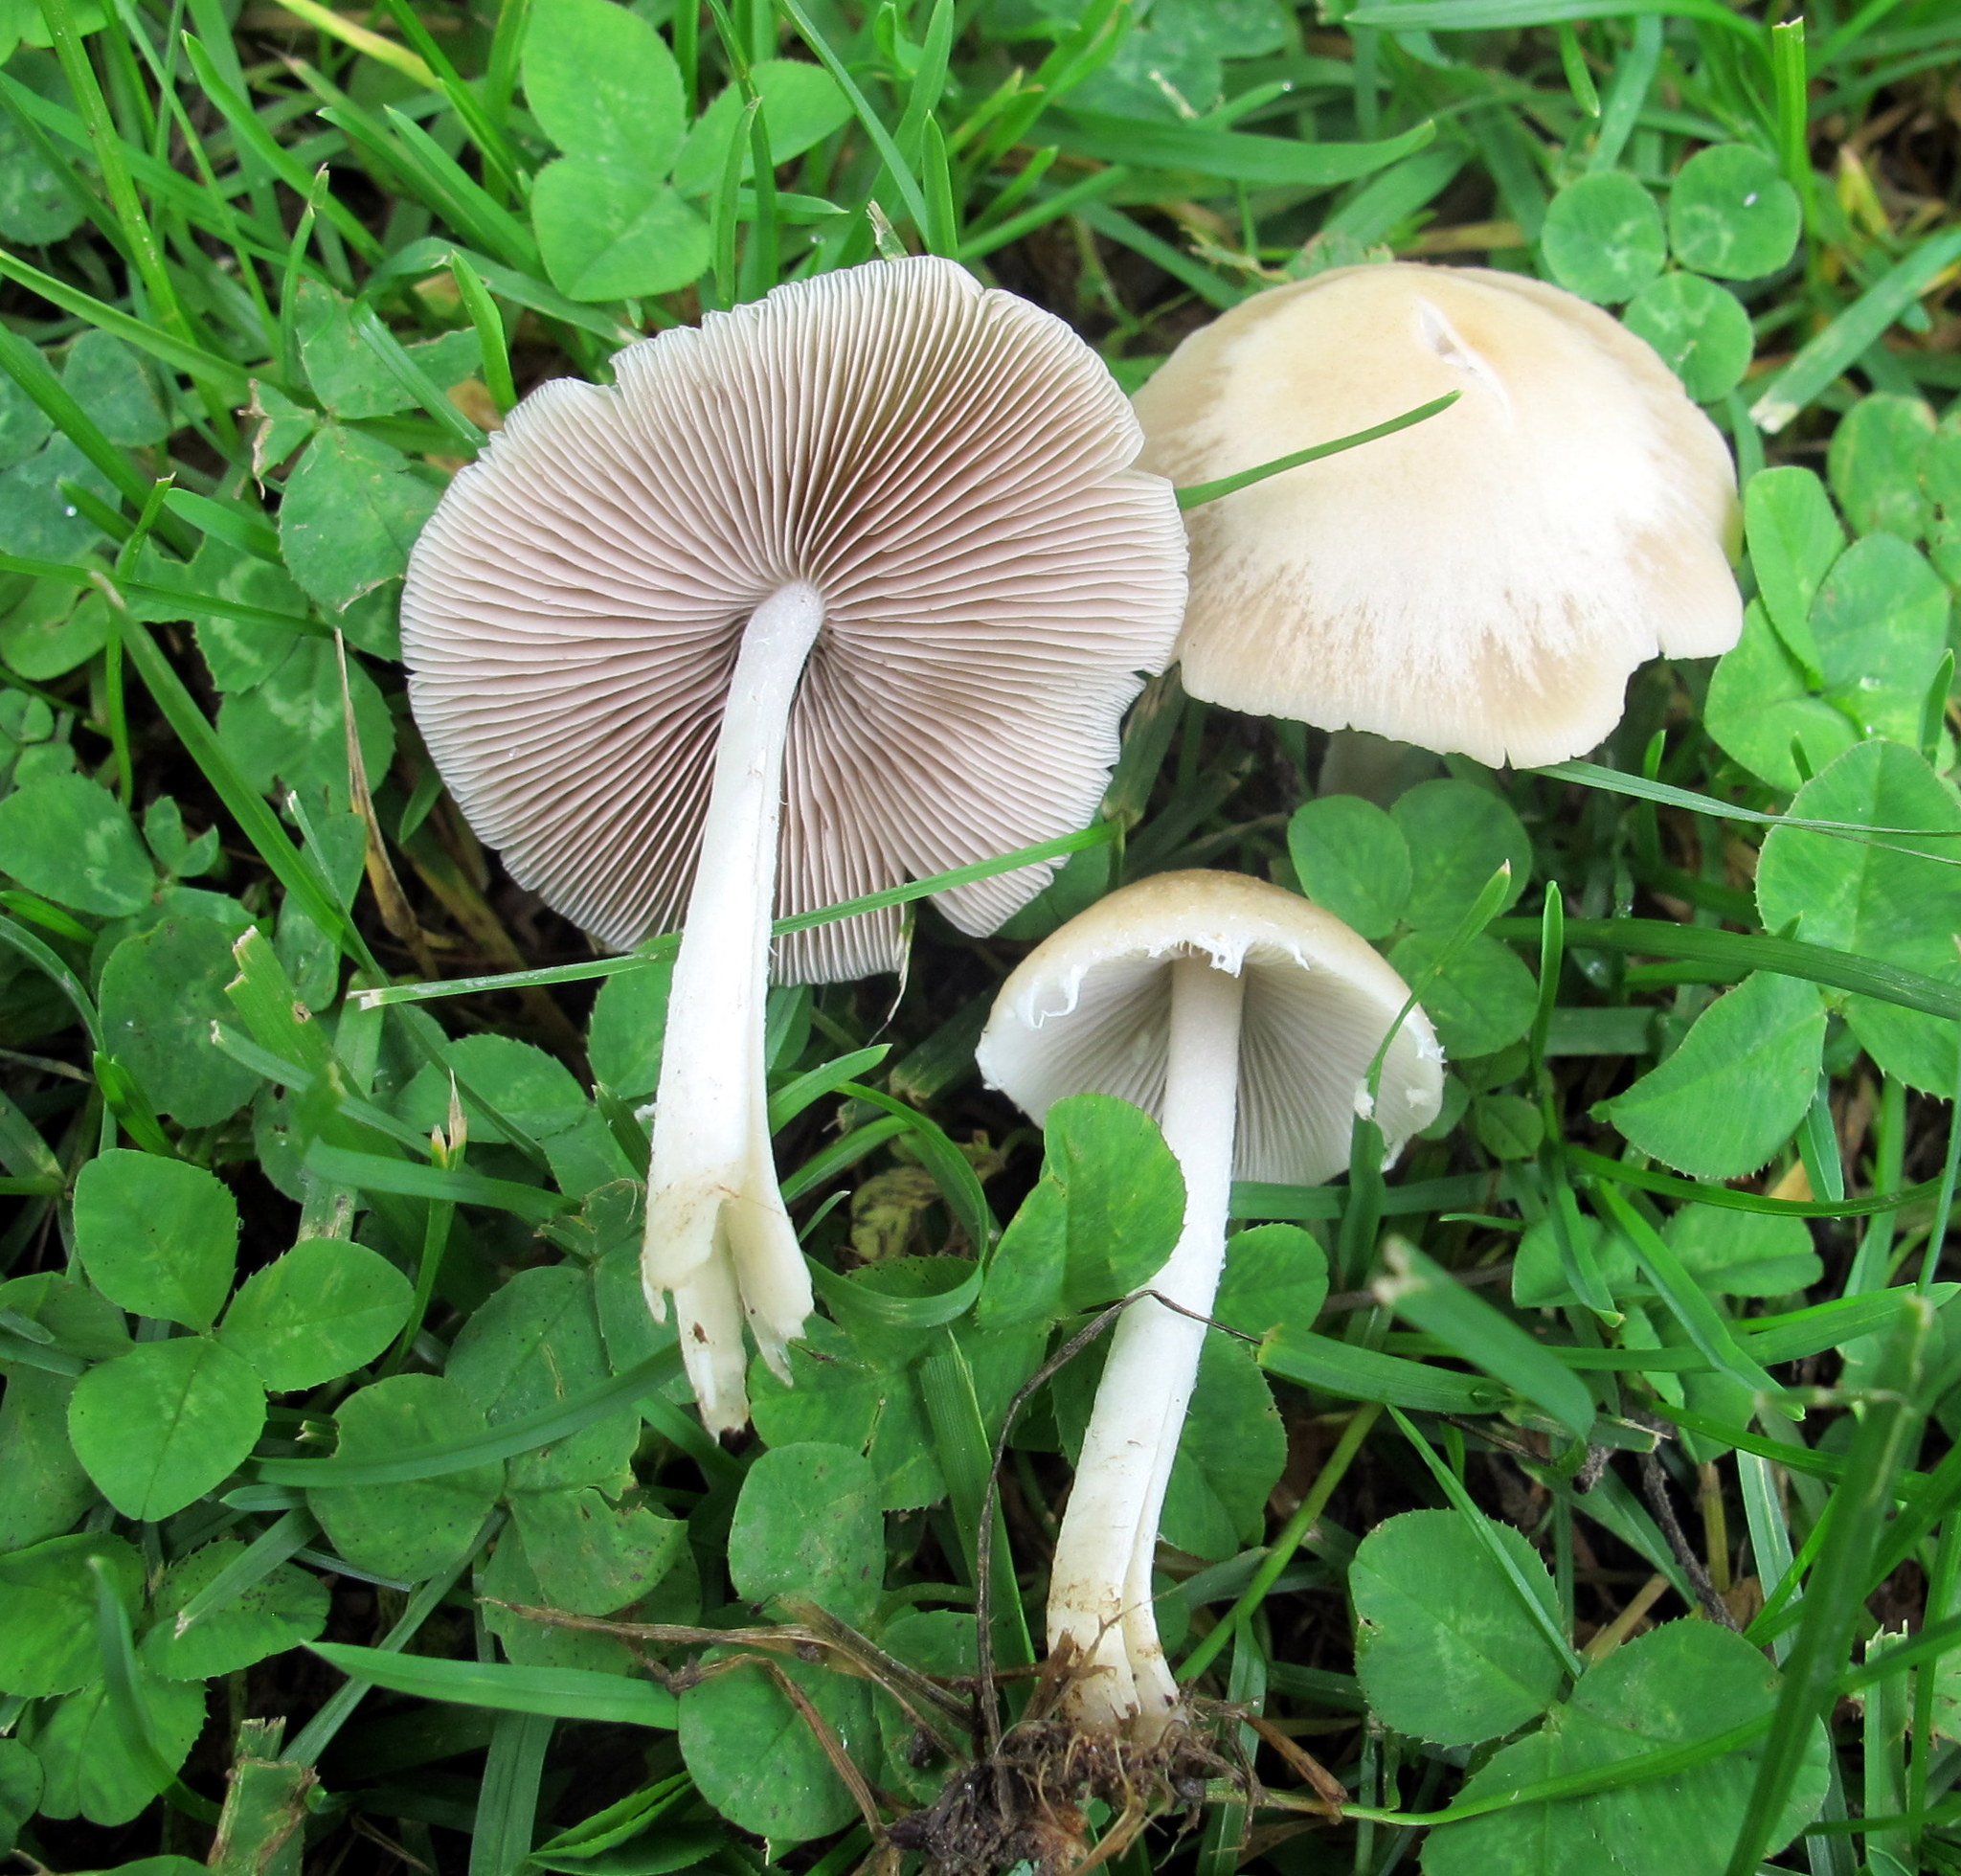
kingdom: Fungi
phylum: Basidiomycota
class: Agaricomycetes
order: Agaricales
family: Psathyrellaceae
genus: Candolleomyces
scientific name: Candolleomyces candolleanus
